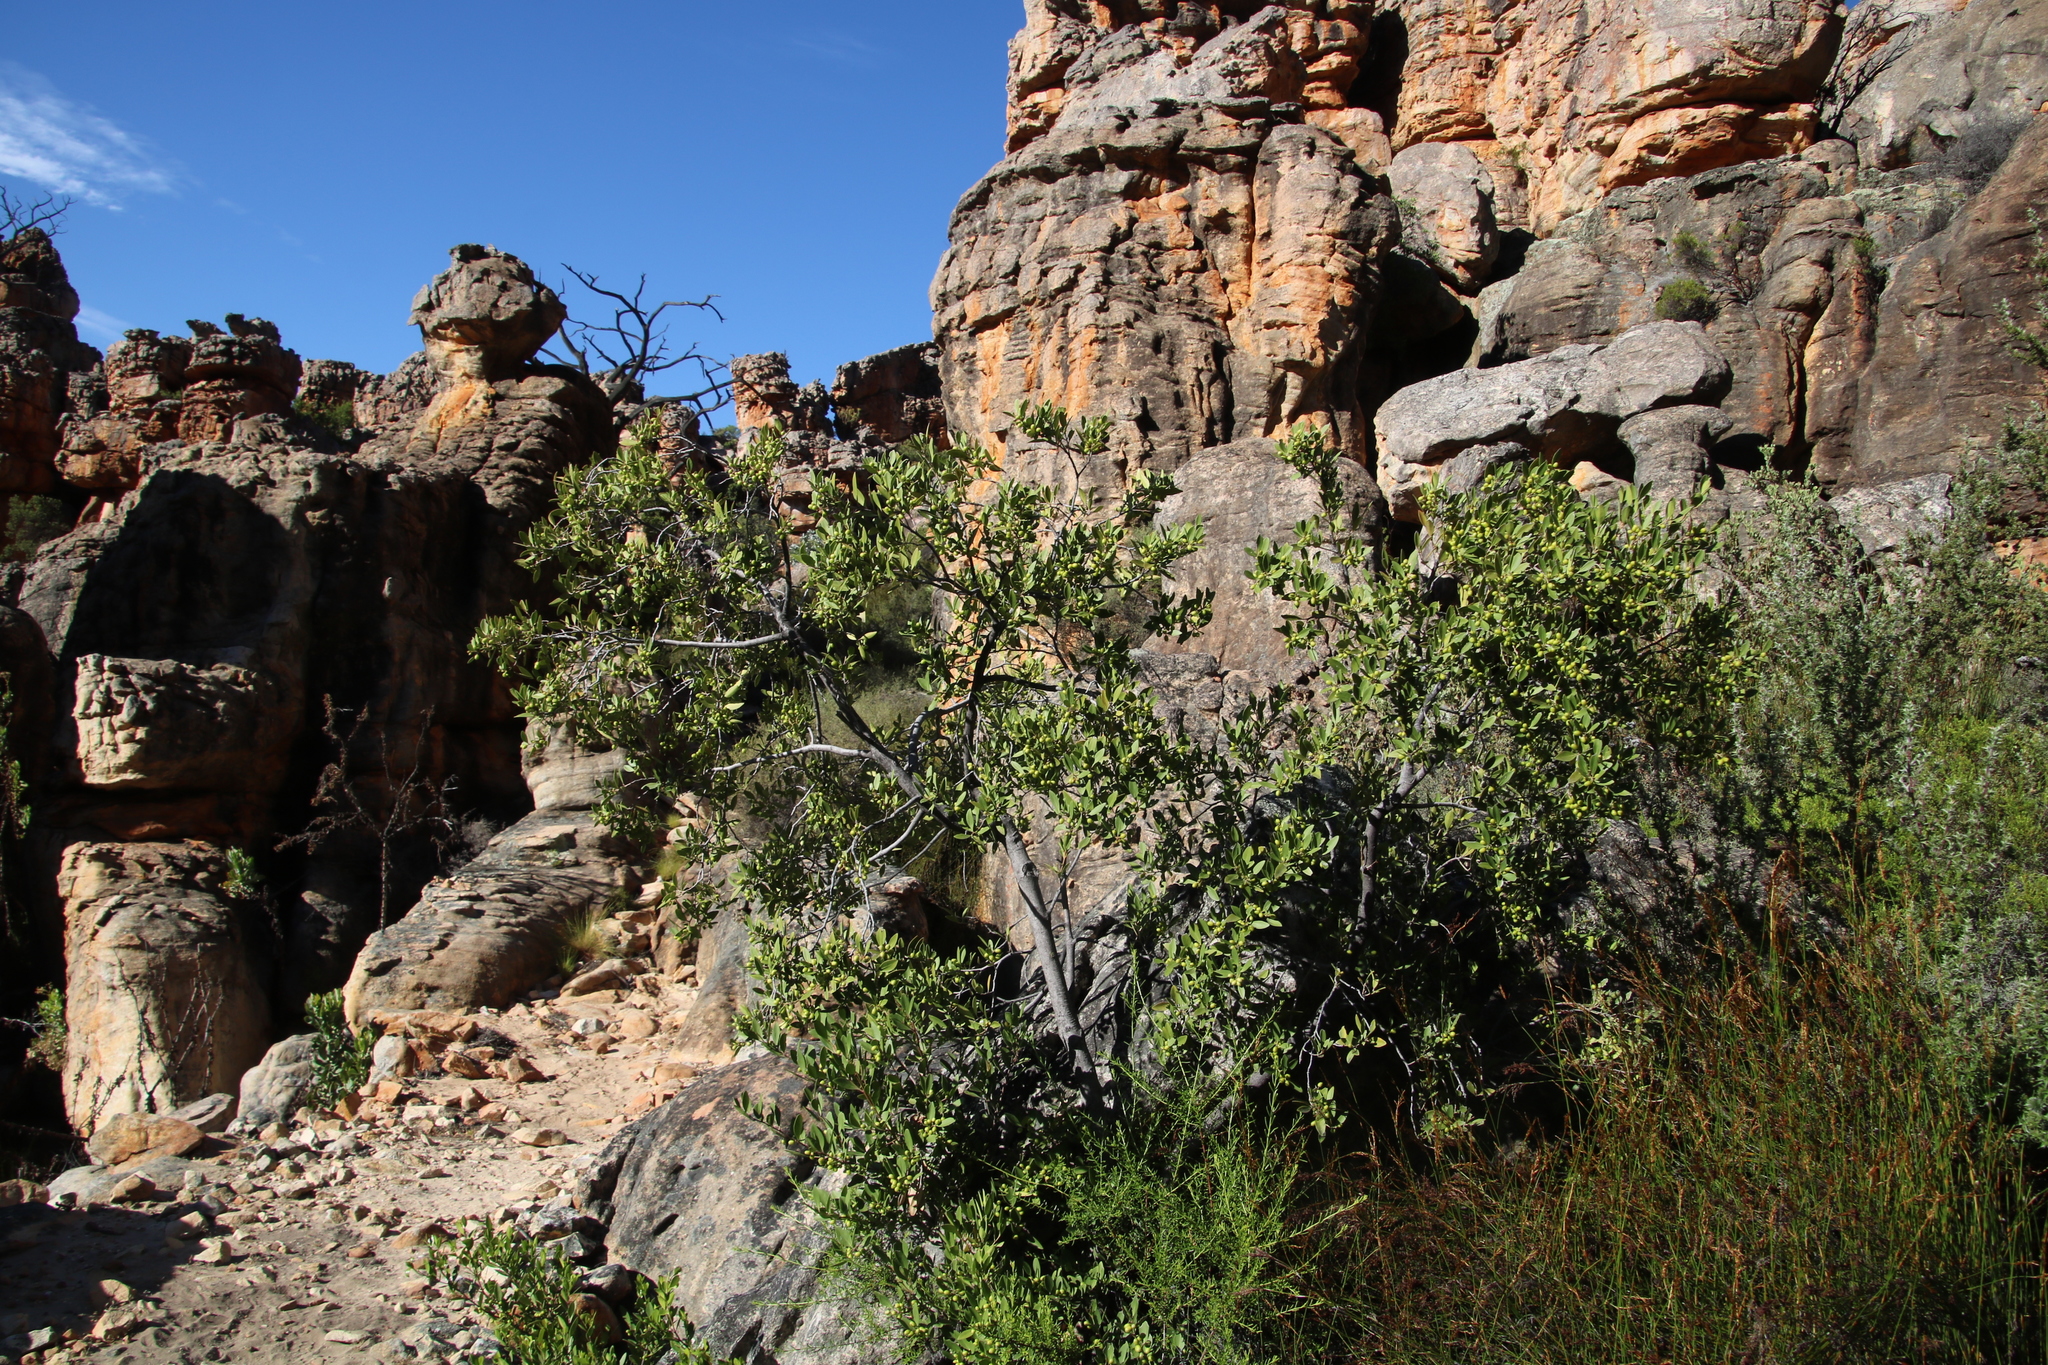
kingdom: Plantae
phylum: Tracheophyta
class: Magnoliopsida
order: Celastrales
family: Celastraceae
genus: Gymnosporia
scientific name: Gymnosporia laurina
